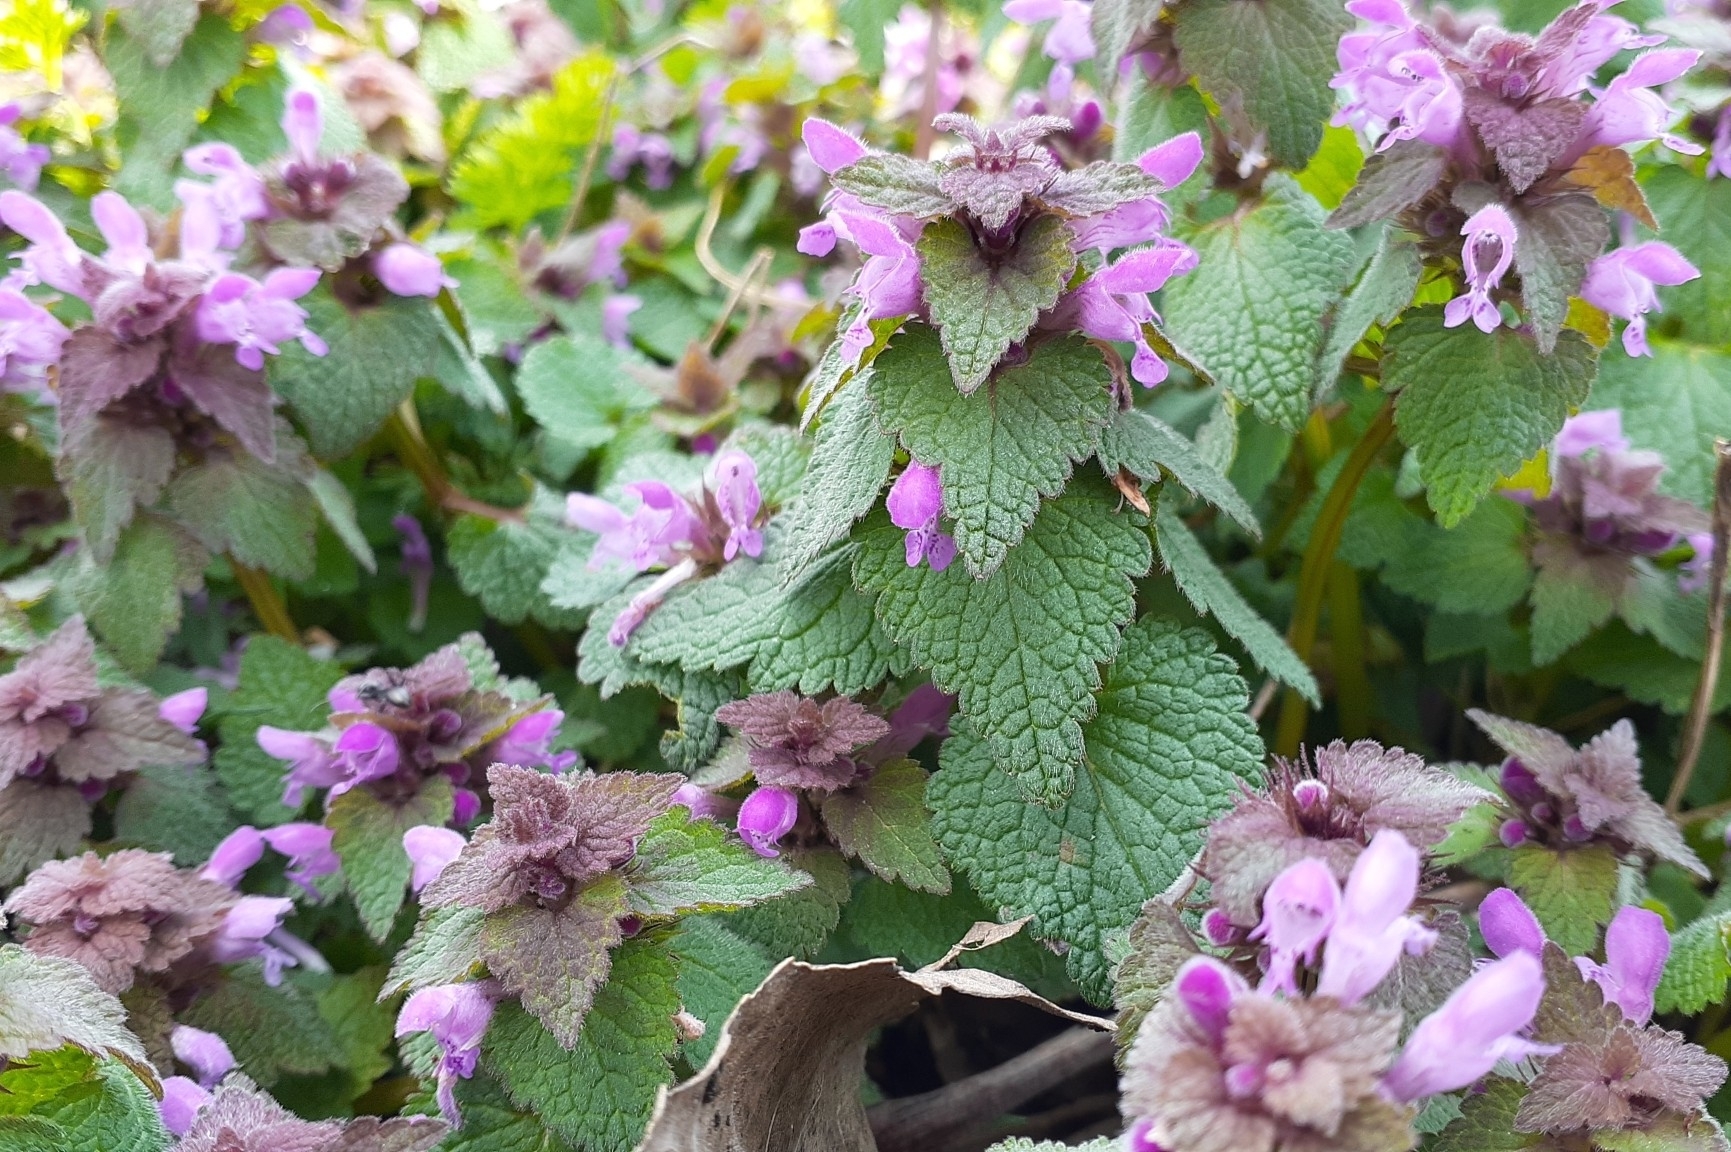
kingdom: Plantae
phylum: Tracheophyta
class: Magnoliopsida
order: Lamiales
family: Lamiaceae
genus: Lamium
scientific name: Lamium purpureum
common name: Red dead-nettle
